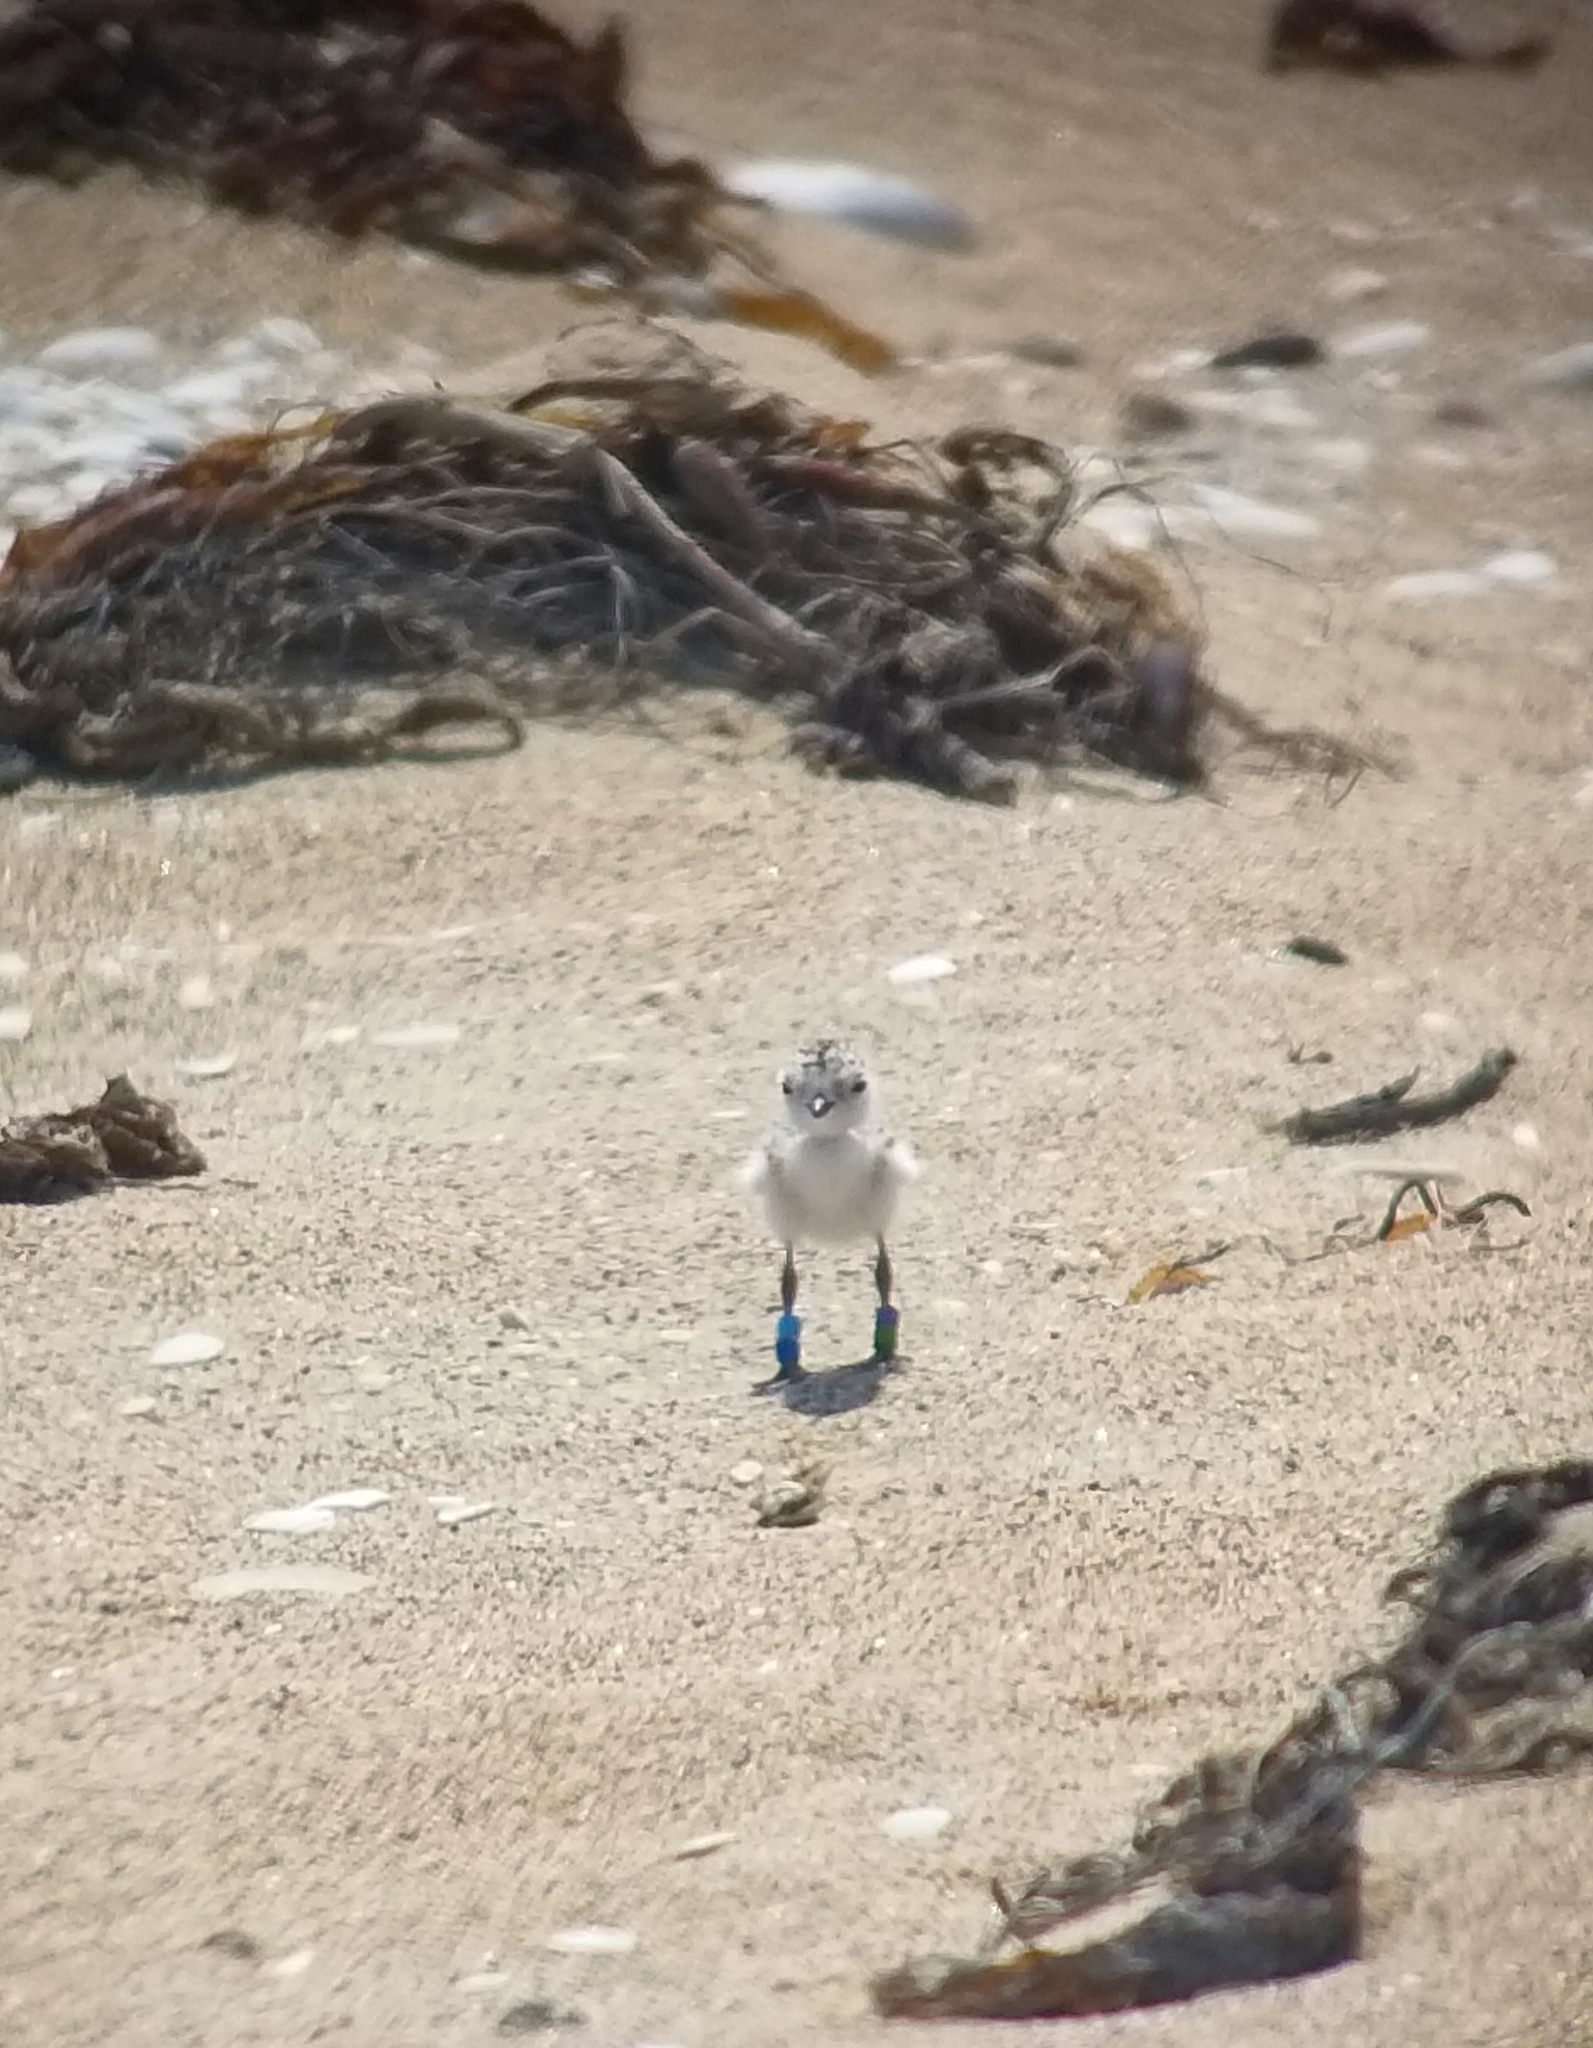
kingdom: Animalia
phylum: Chordata
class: Aves
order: Charadriiformes
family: Charadriidae
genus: Anarhynchus
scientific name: Anarhynchus
